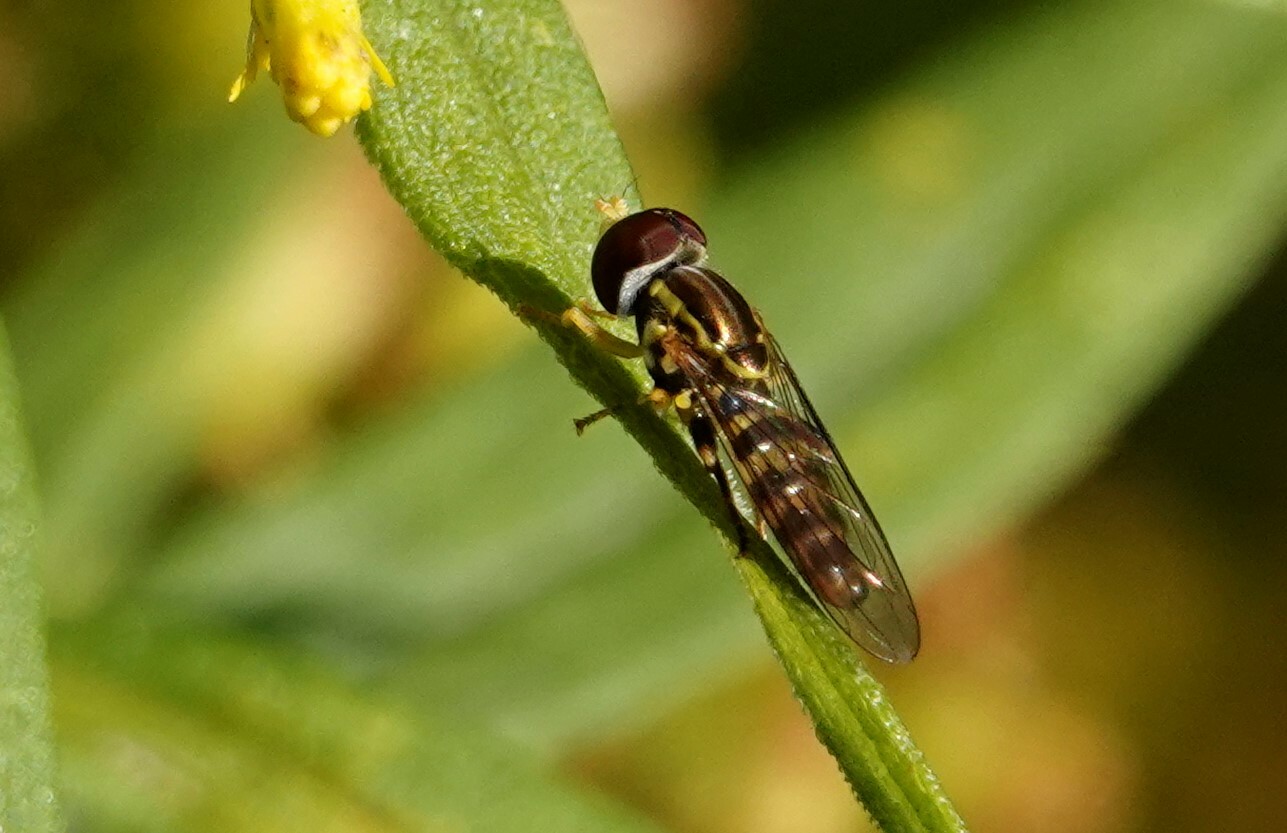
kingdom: Animalia
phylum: Arthropoda
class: Insecta
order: Diptera
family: Syrphidae
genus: Toxomerus
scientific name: Toxomerus geminatus
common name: Eastern calligrapher
